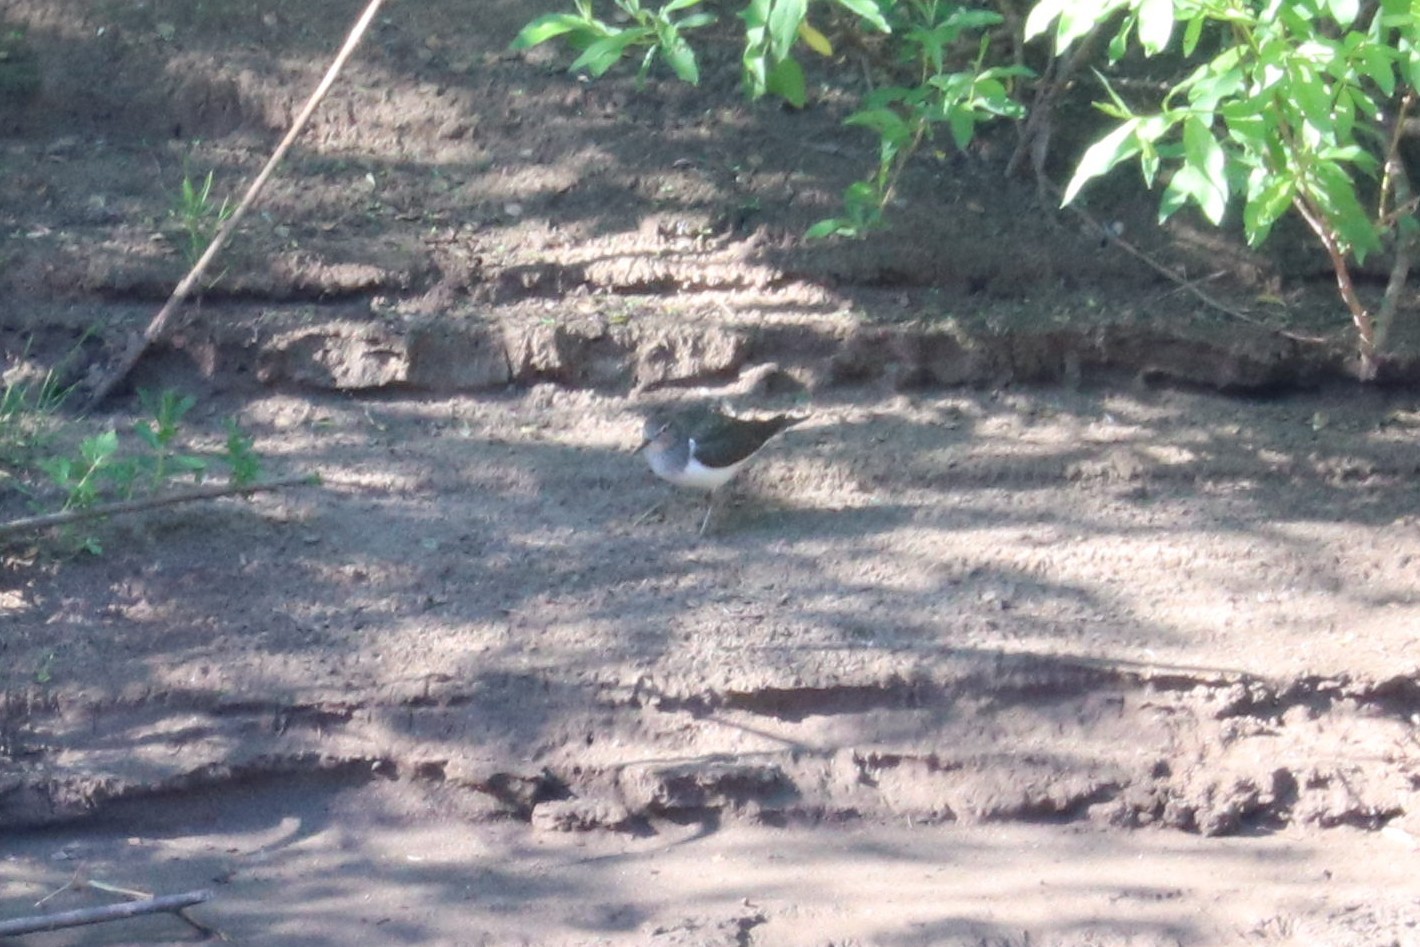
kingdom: Animalia
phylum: Chordata
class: Aves
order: Charadriiformes
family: Scolopacidae
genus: Actitis
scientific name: Actitis hypoleucos
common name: Common sandpiper
